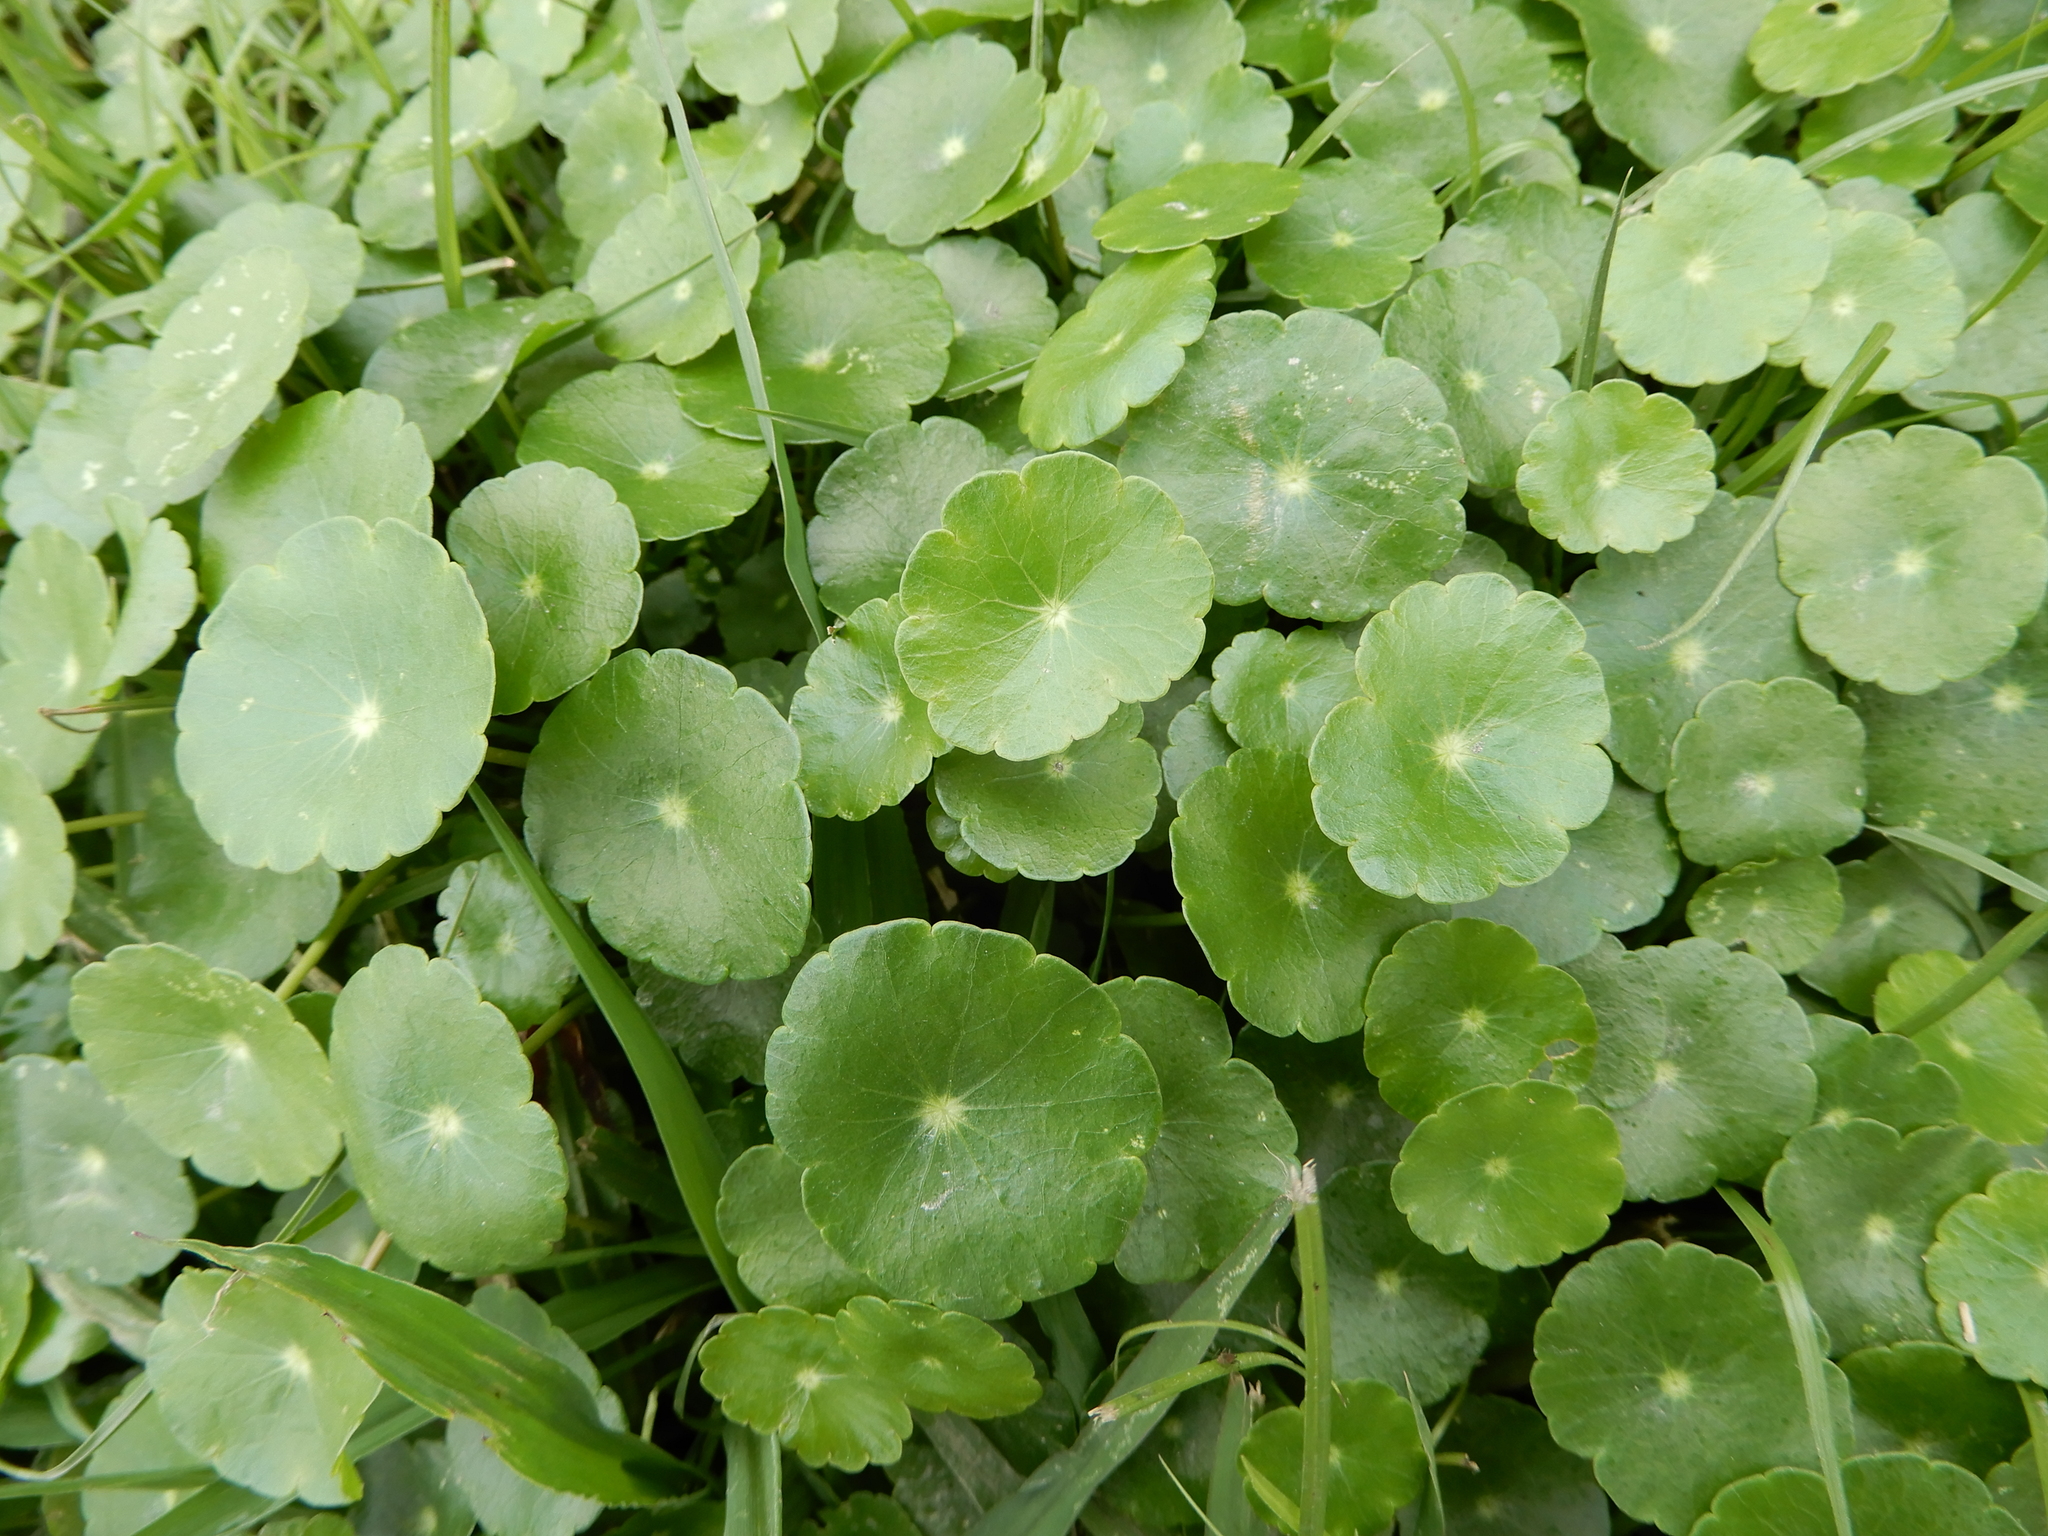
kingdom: Plantae
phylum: Tracheophyta
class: Magnoliopsida
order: Apiales
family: Araliaceae
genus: Hydrocotyle
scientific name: Hydrocotyle verticillata
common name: Whorled marshpennywort
